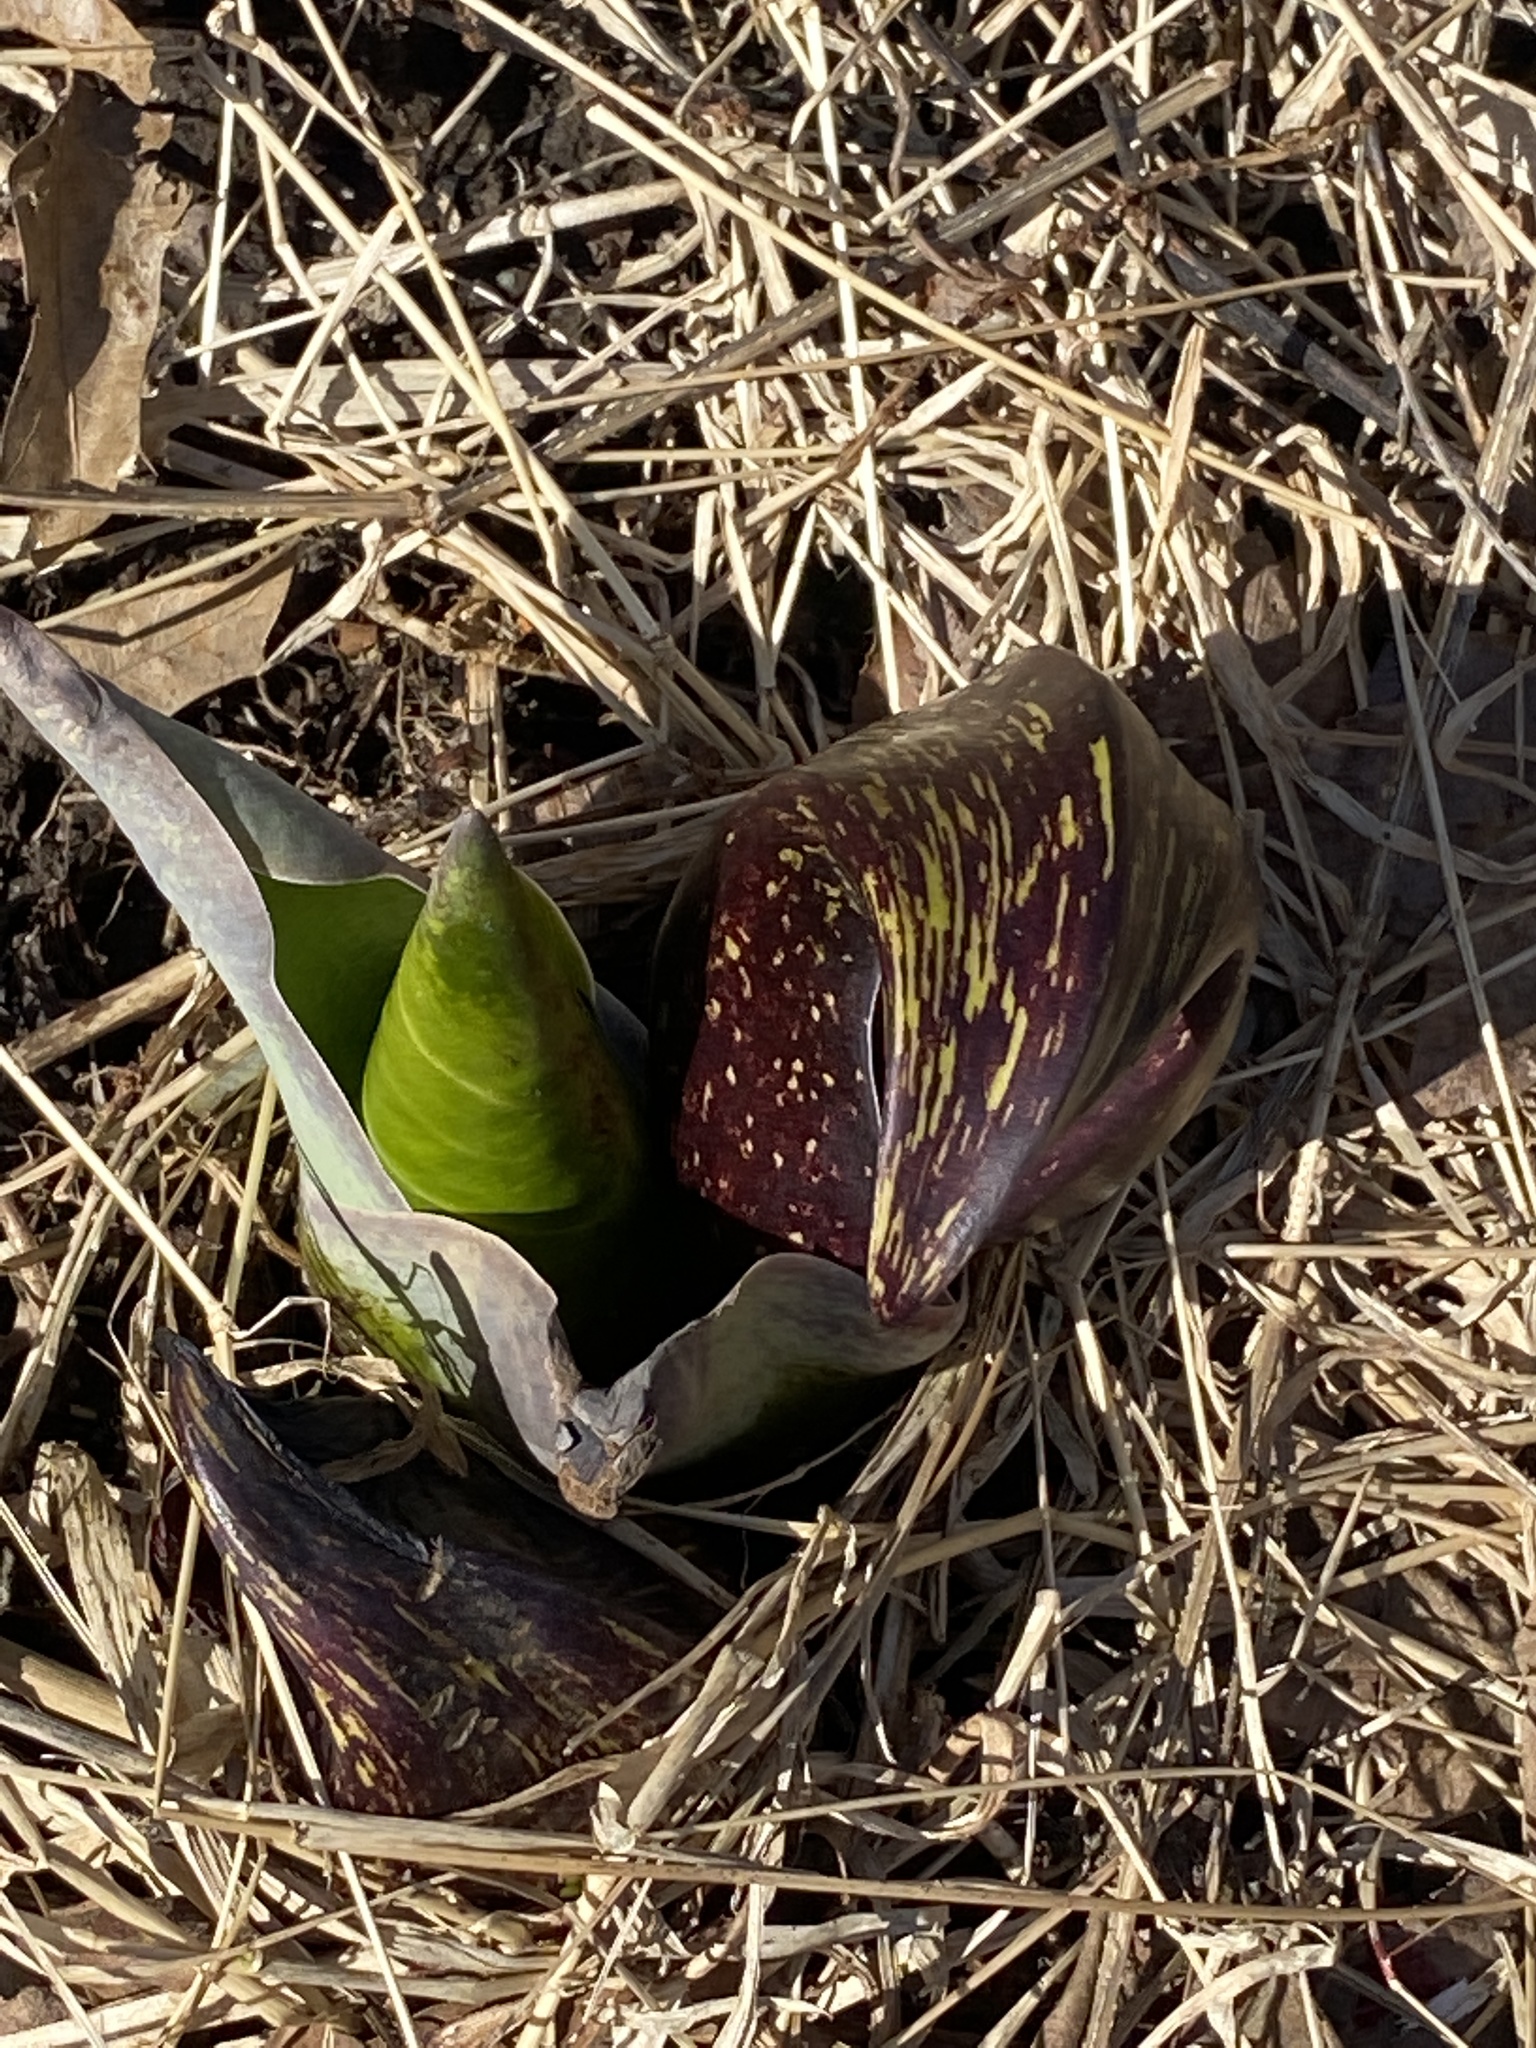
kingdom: Plantae
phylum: Tracheophyta
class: Liliopsida
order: Alismatales
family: Araceae
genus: Symplocarpus
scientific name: Symplocarpus foetidus
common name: Eastern skunk cabbage
